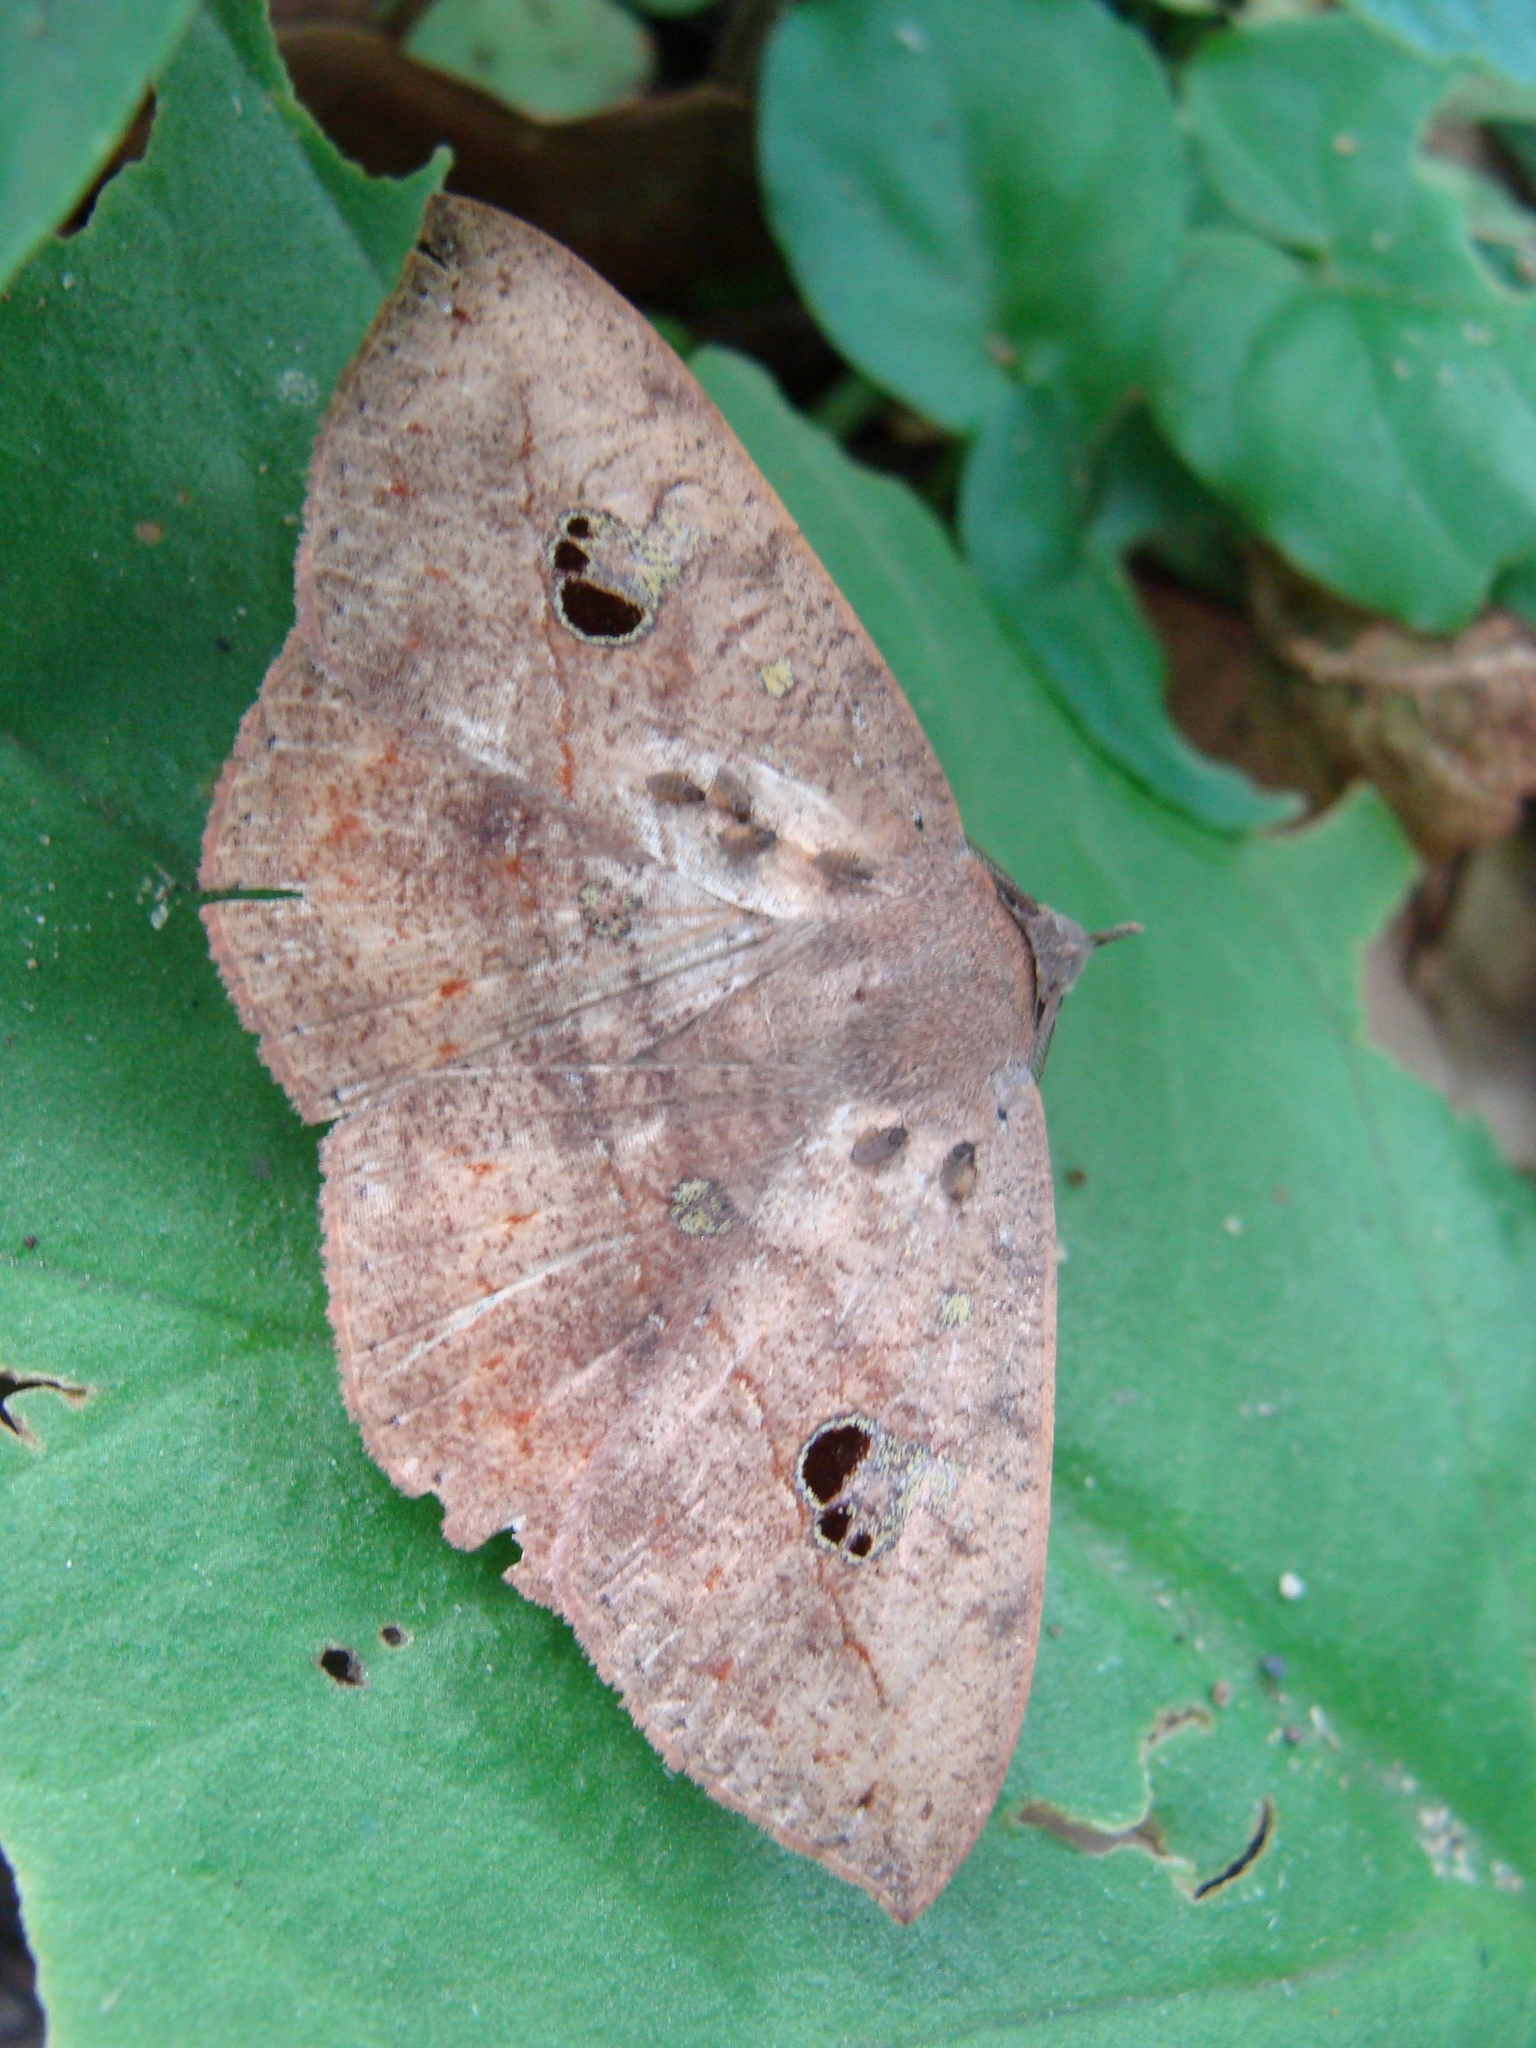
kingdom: Animalia
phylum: Arthropoda
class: Insecta
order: Lepidoptera
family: Erebidae
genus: Gorgone
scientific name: Gorgone fellearis
